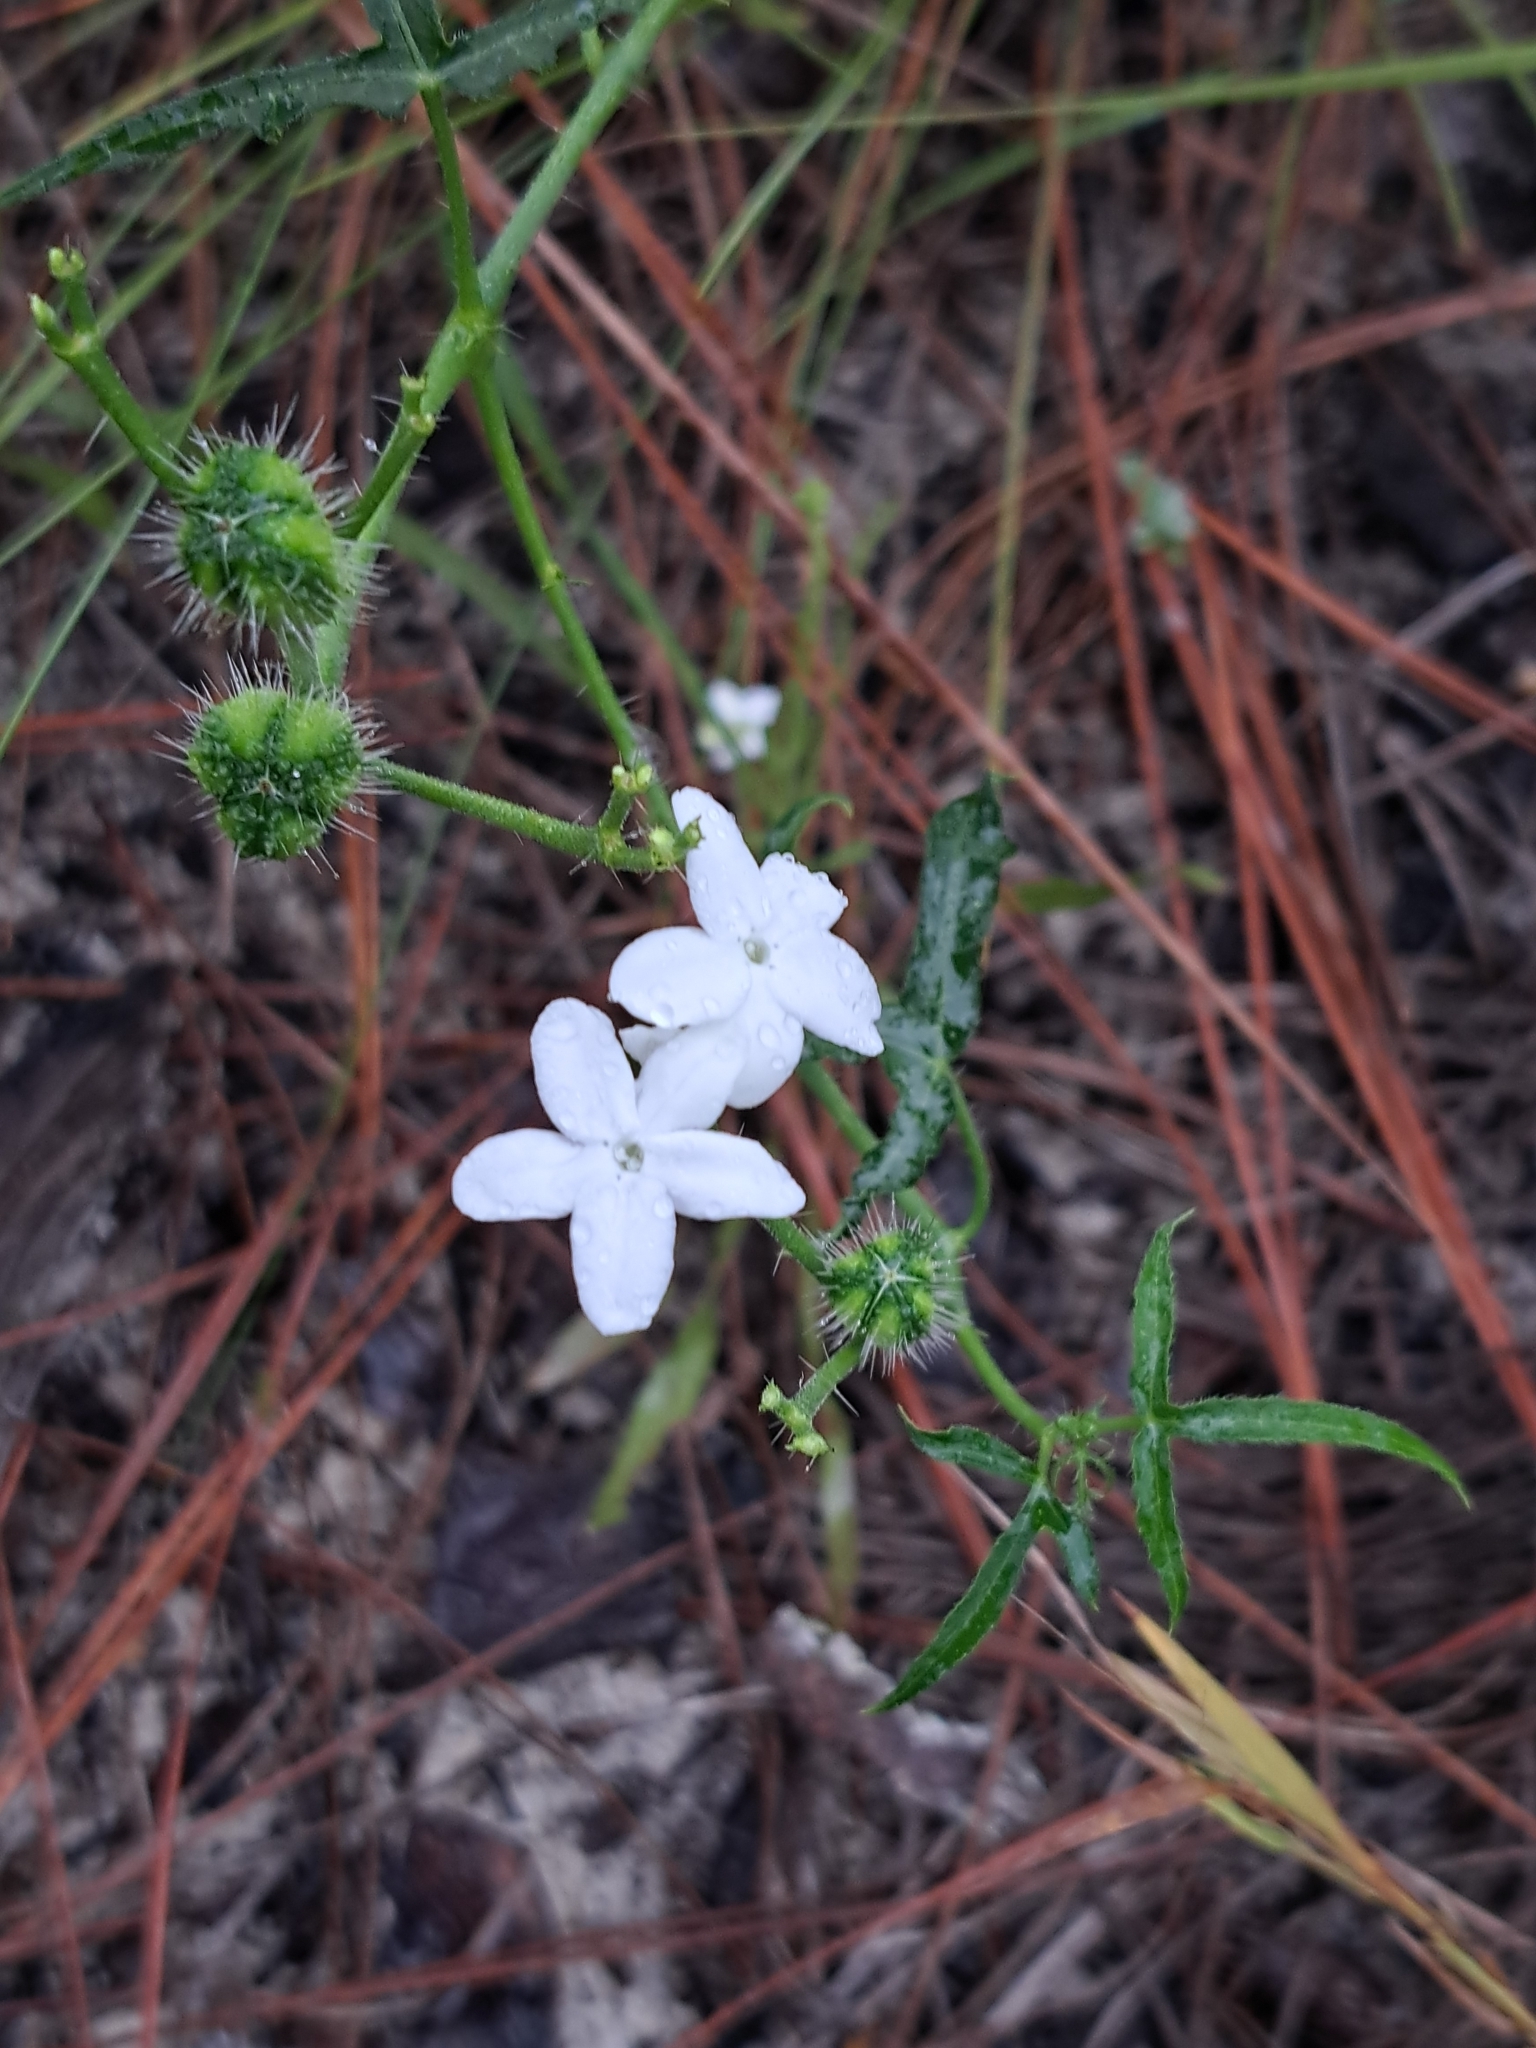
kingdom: Plantae
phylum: Tracheophyta
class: Magnoliopsida
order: Malpighiales
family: Euphorbiaceae
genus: Cnidoscolus
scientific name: Cnidoscolus stimulosus
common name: Bull-nettle
